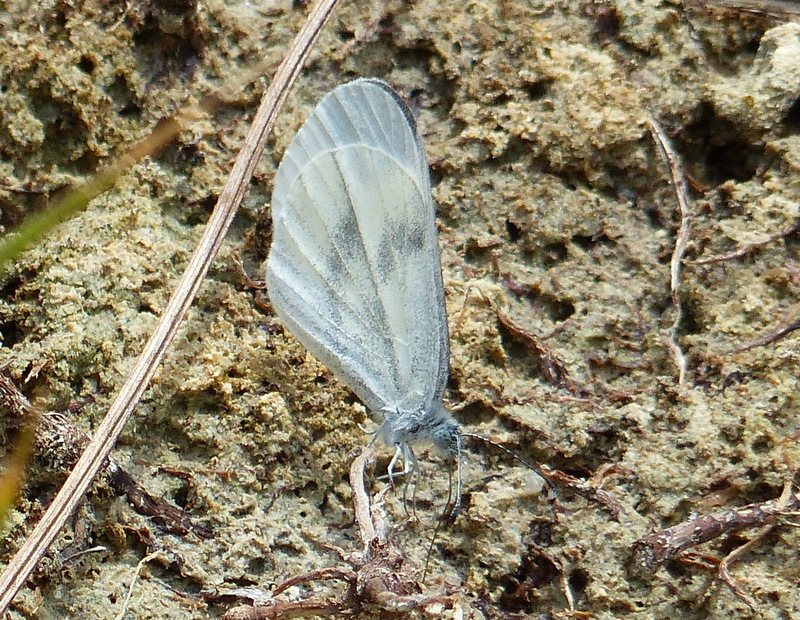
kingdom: Animalia
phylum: Arthropoda
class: Insecta
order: Lepidoptera
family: Pieridae
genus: Leptidea
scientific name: Leptidea sinapis
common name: Wood white
